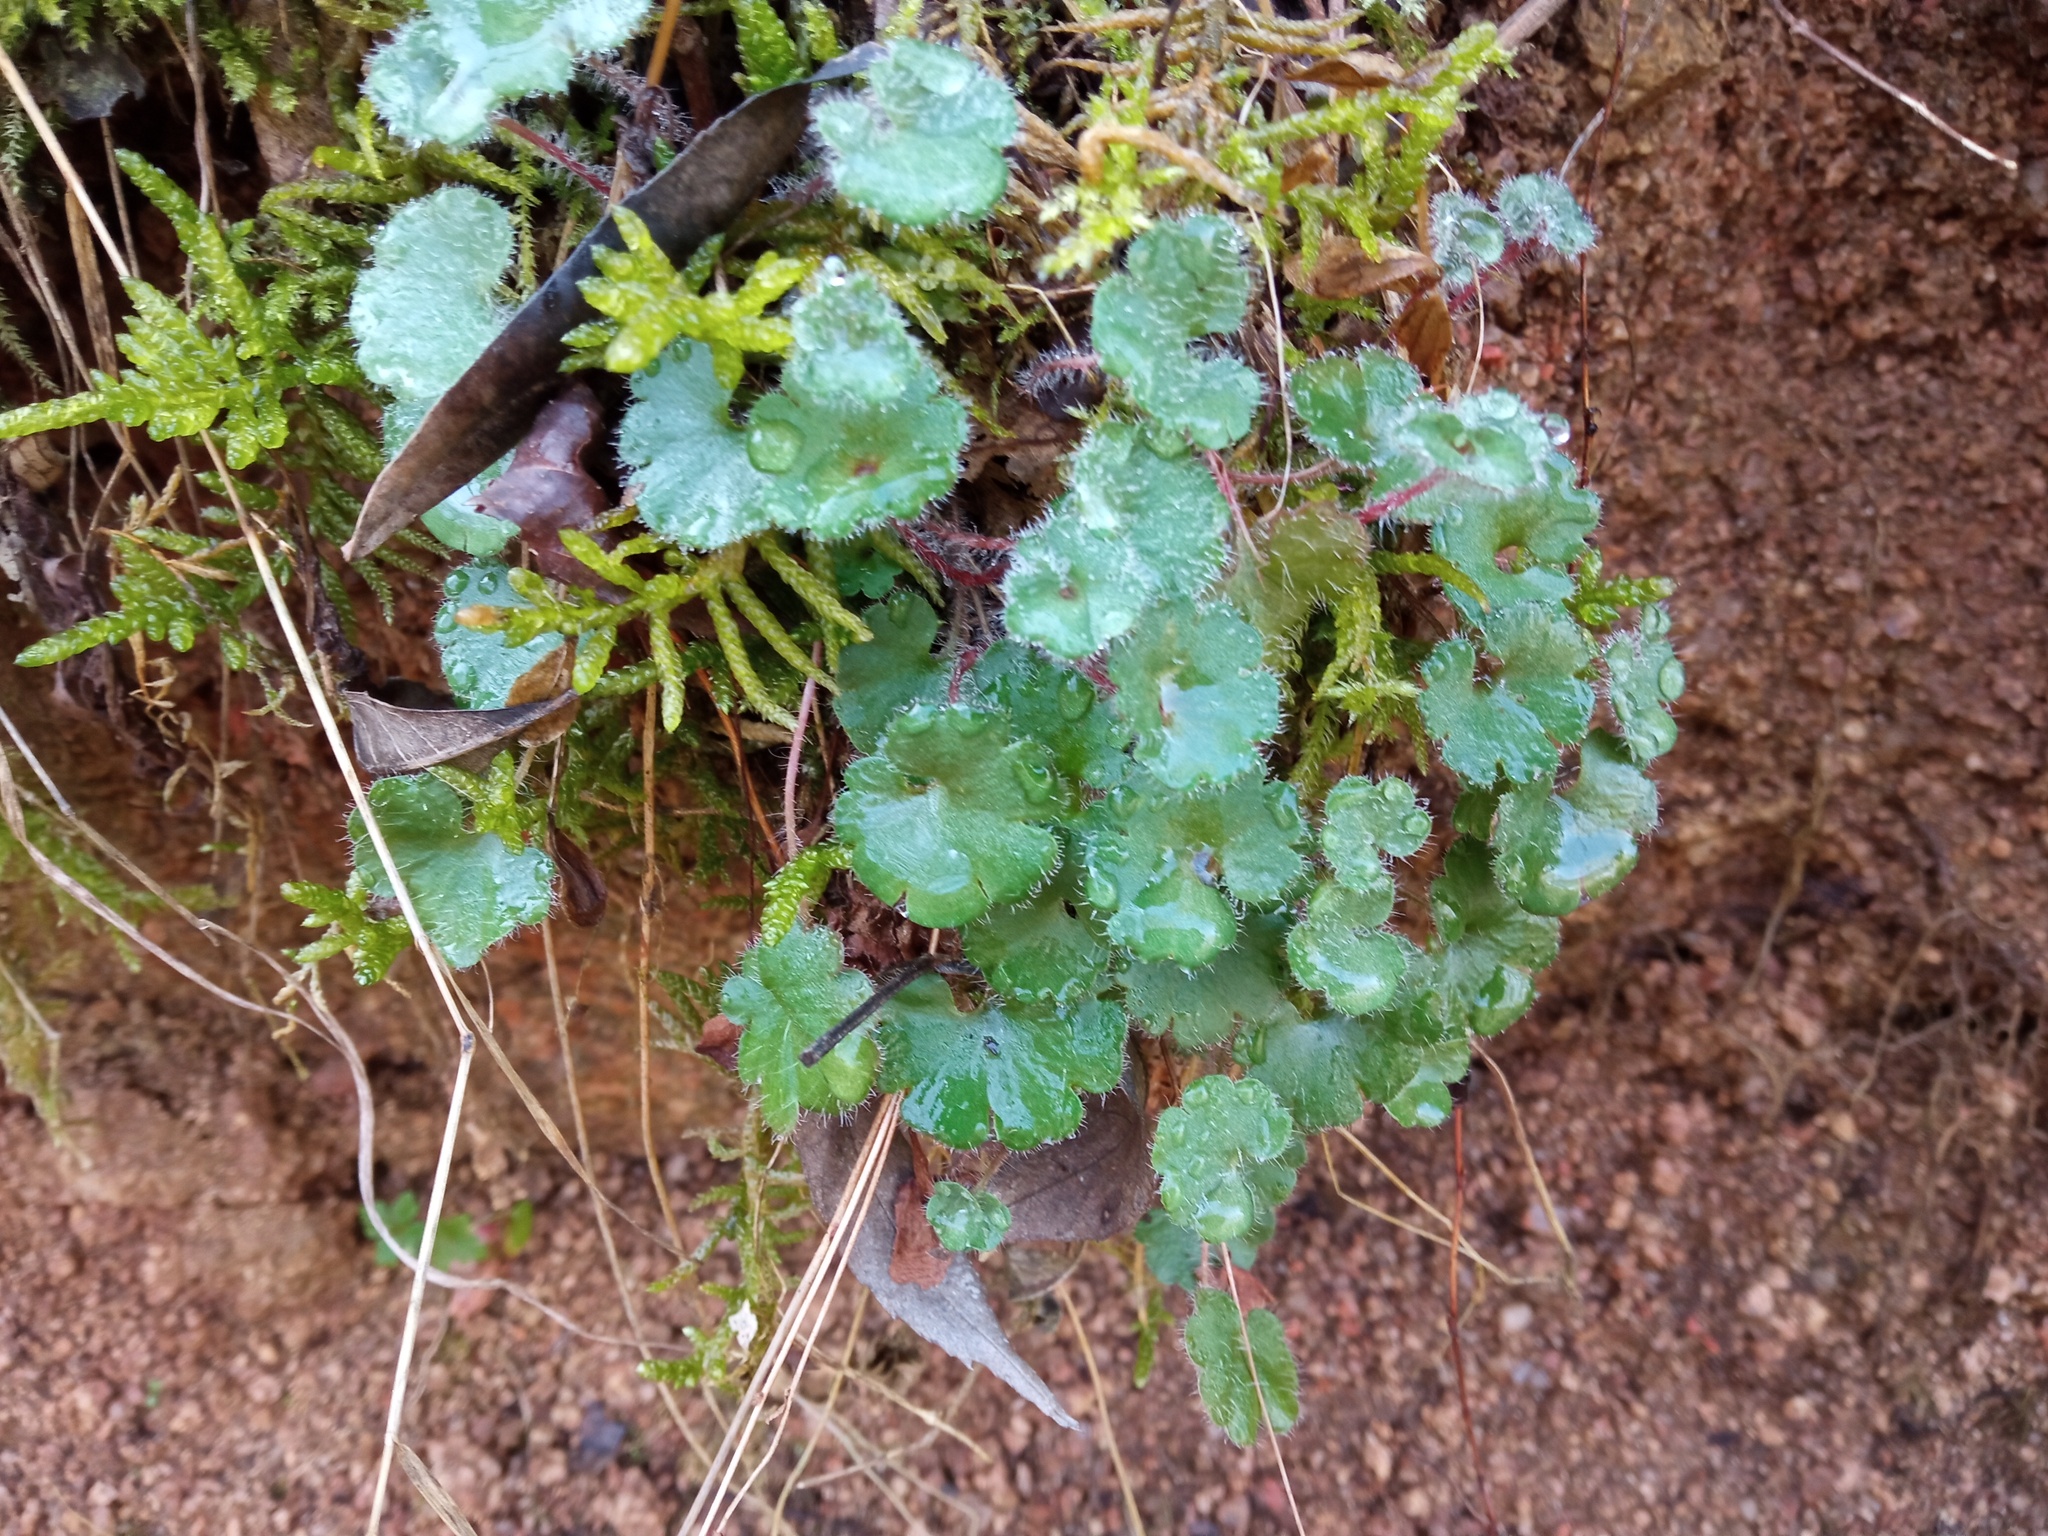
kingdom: Plantae
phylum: Tracheophyta
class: Magnoliopsida
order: Saxifragales
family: Saxifragaceae
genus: Saxifraga
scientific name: Saxifraga granulata
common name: Meadow saxifrage
